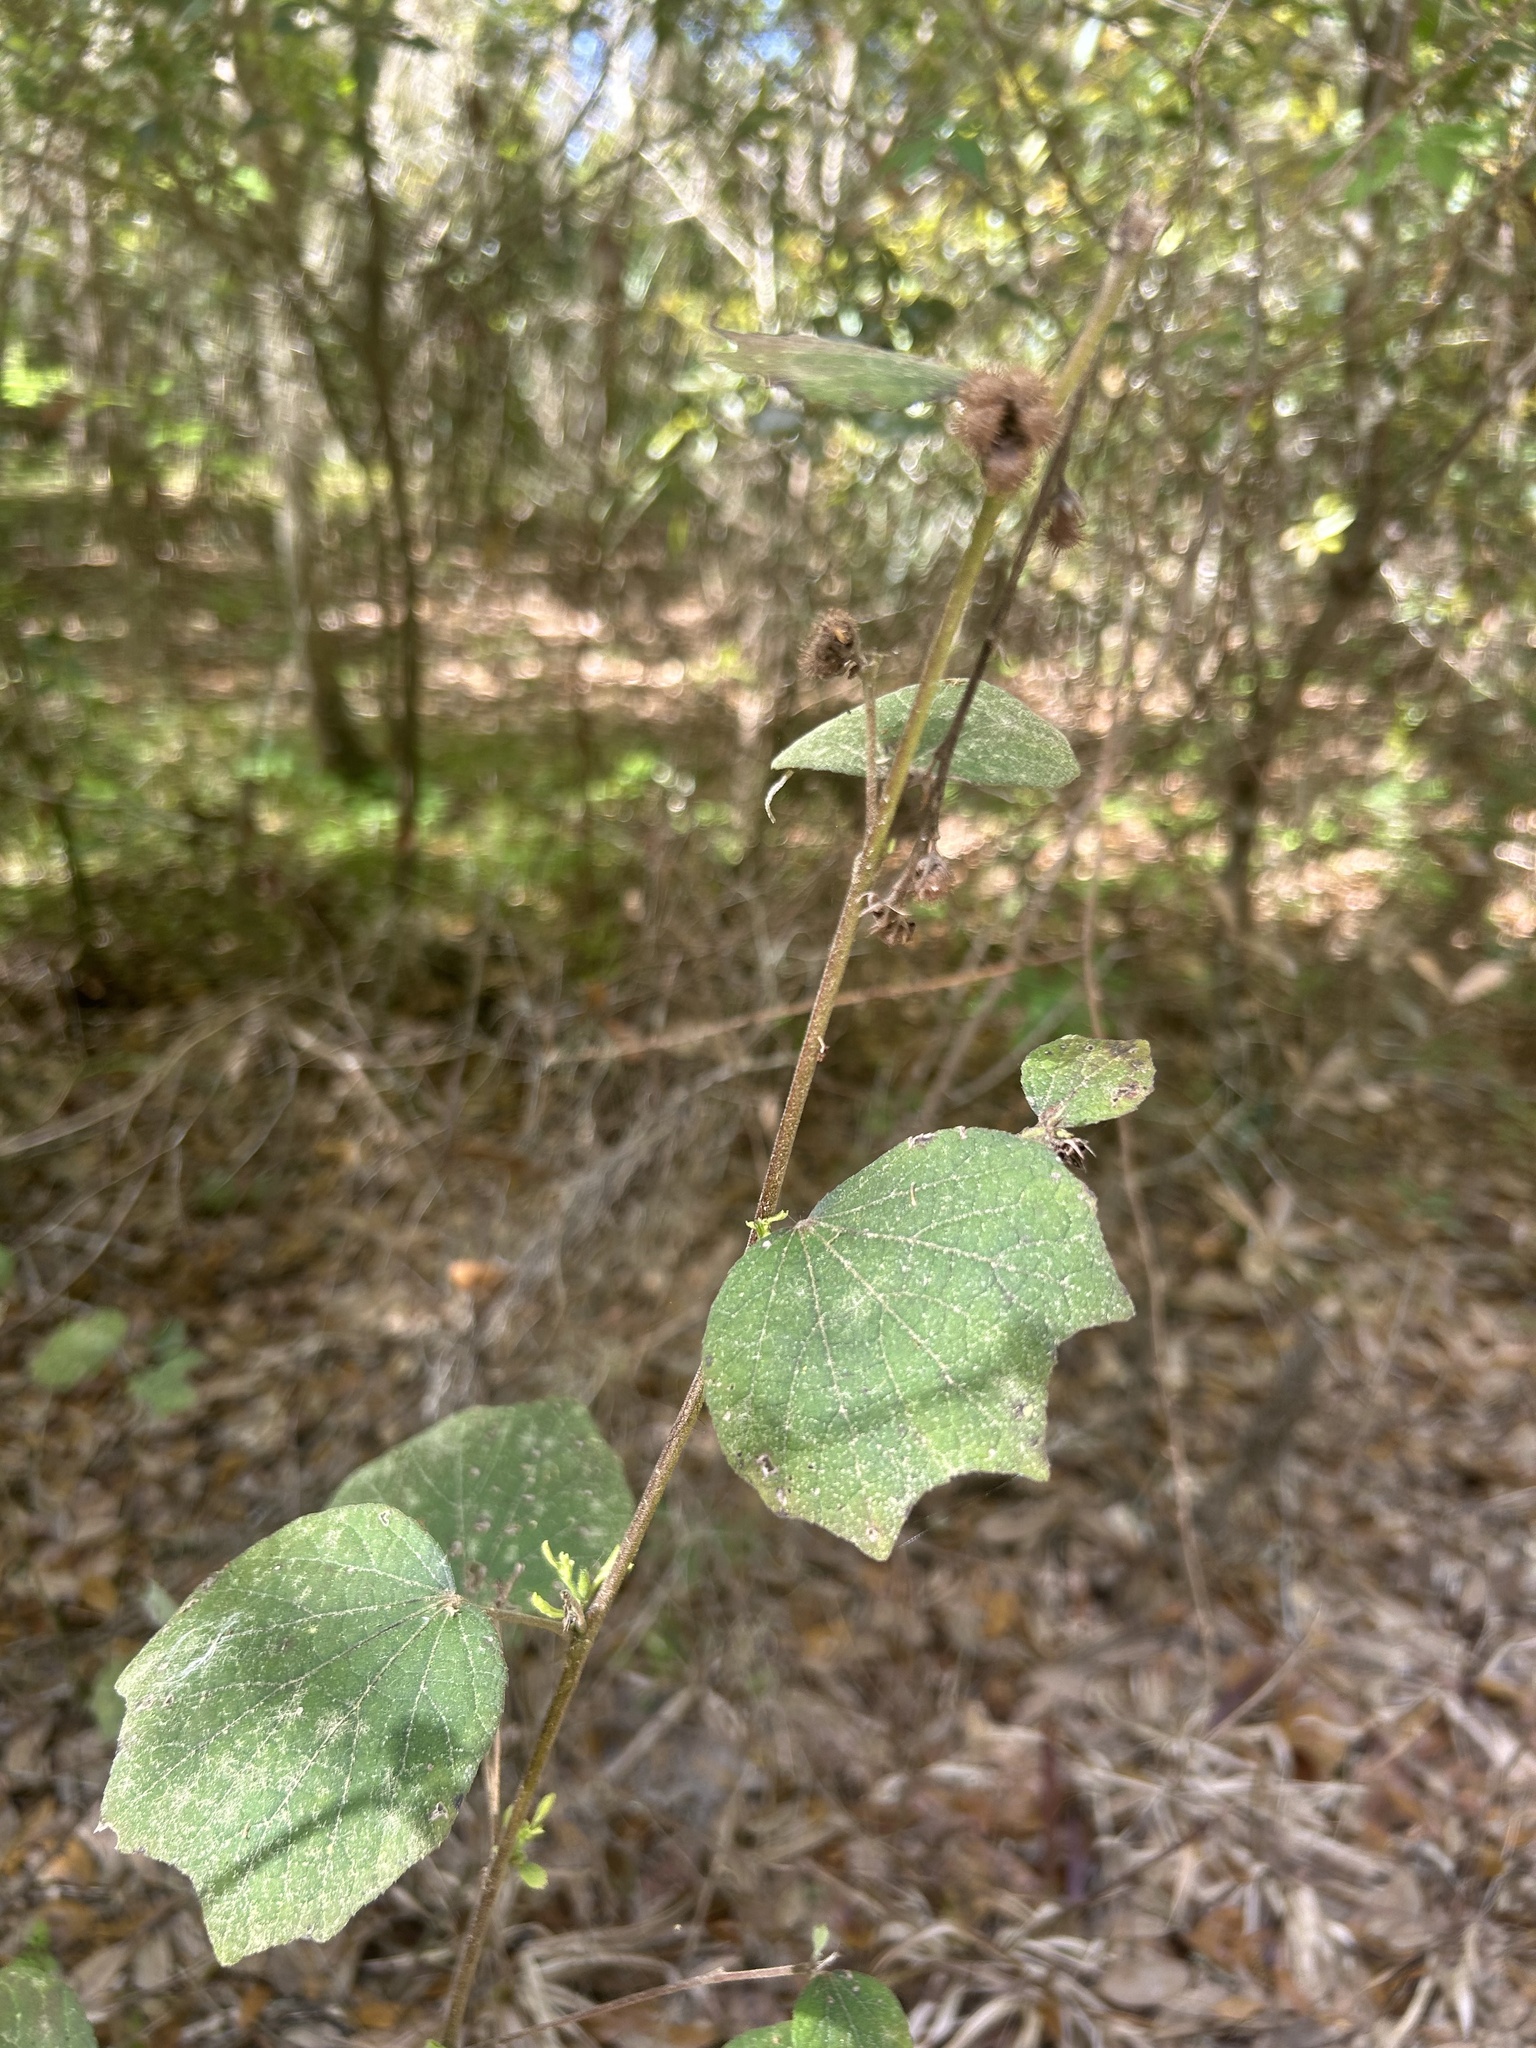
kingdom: Plantae
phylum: Tracheophyta
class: Magnoliopsida
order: Malvales
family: Malvaceae
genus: Urena
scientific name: Urena lobata
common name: Caesarweed
